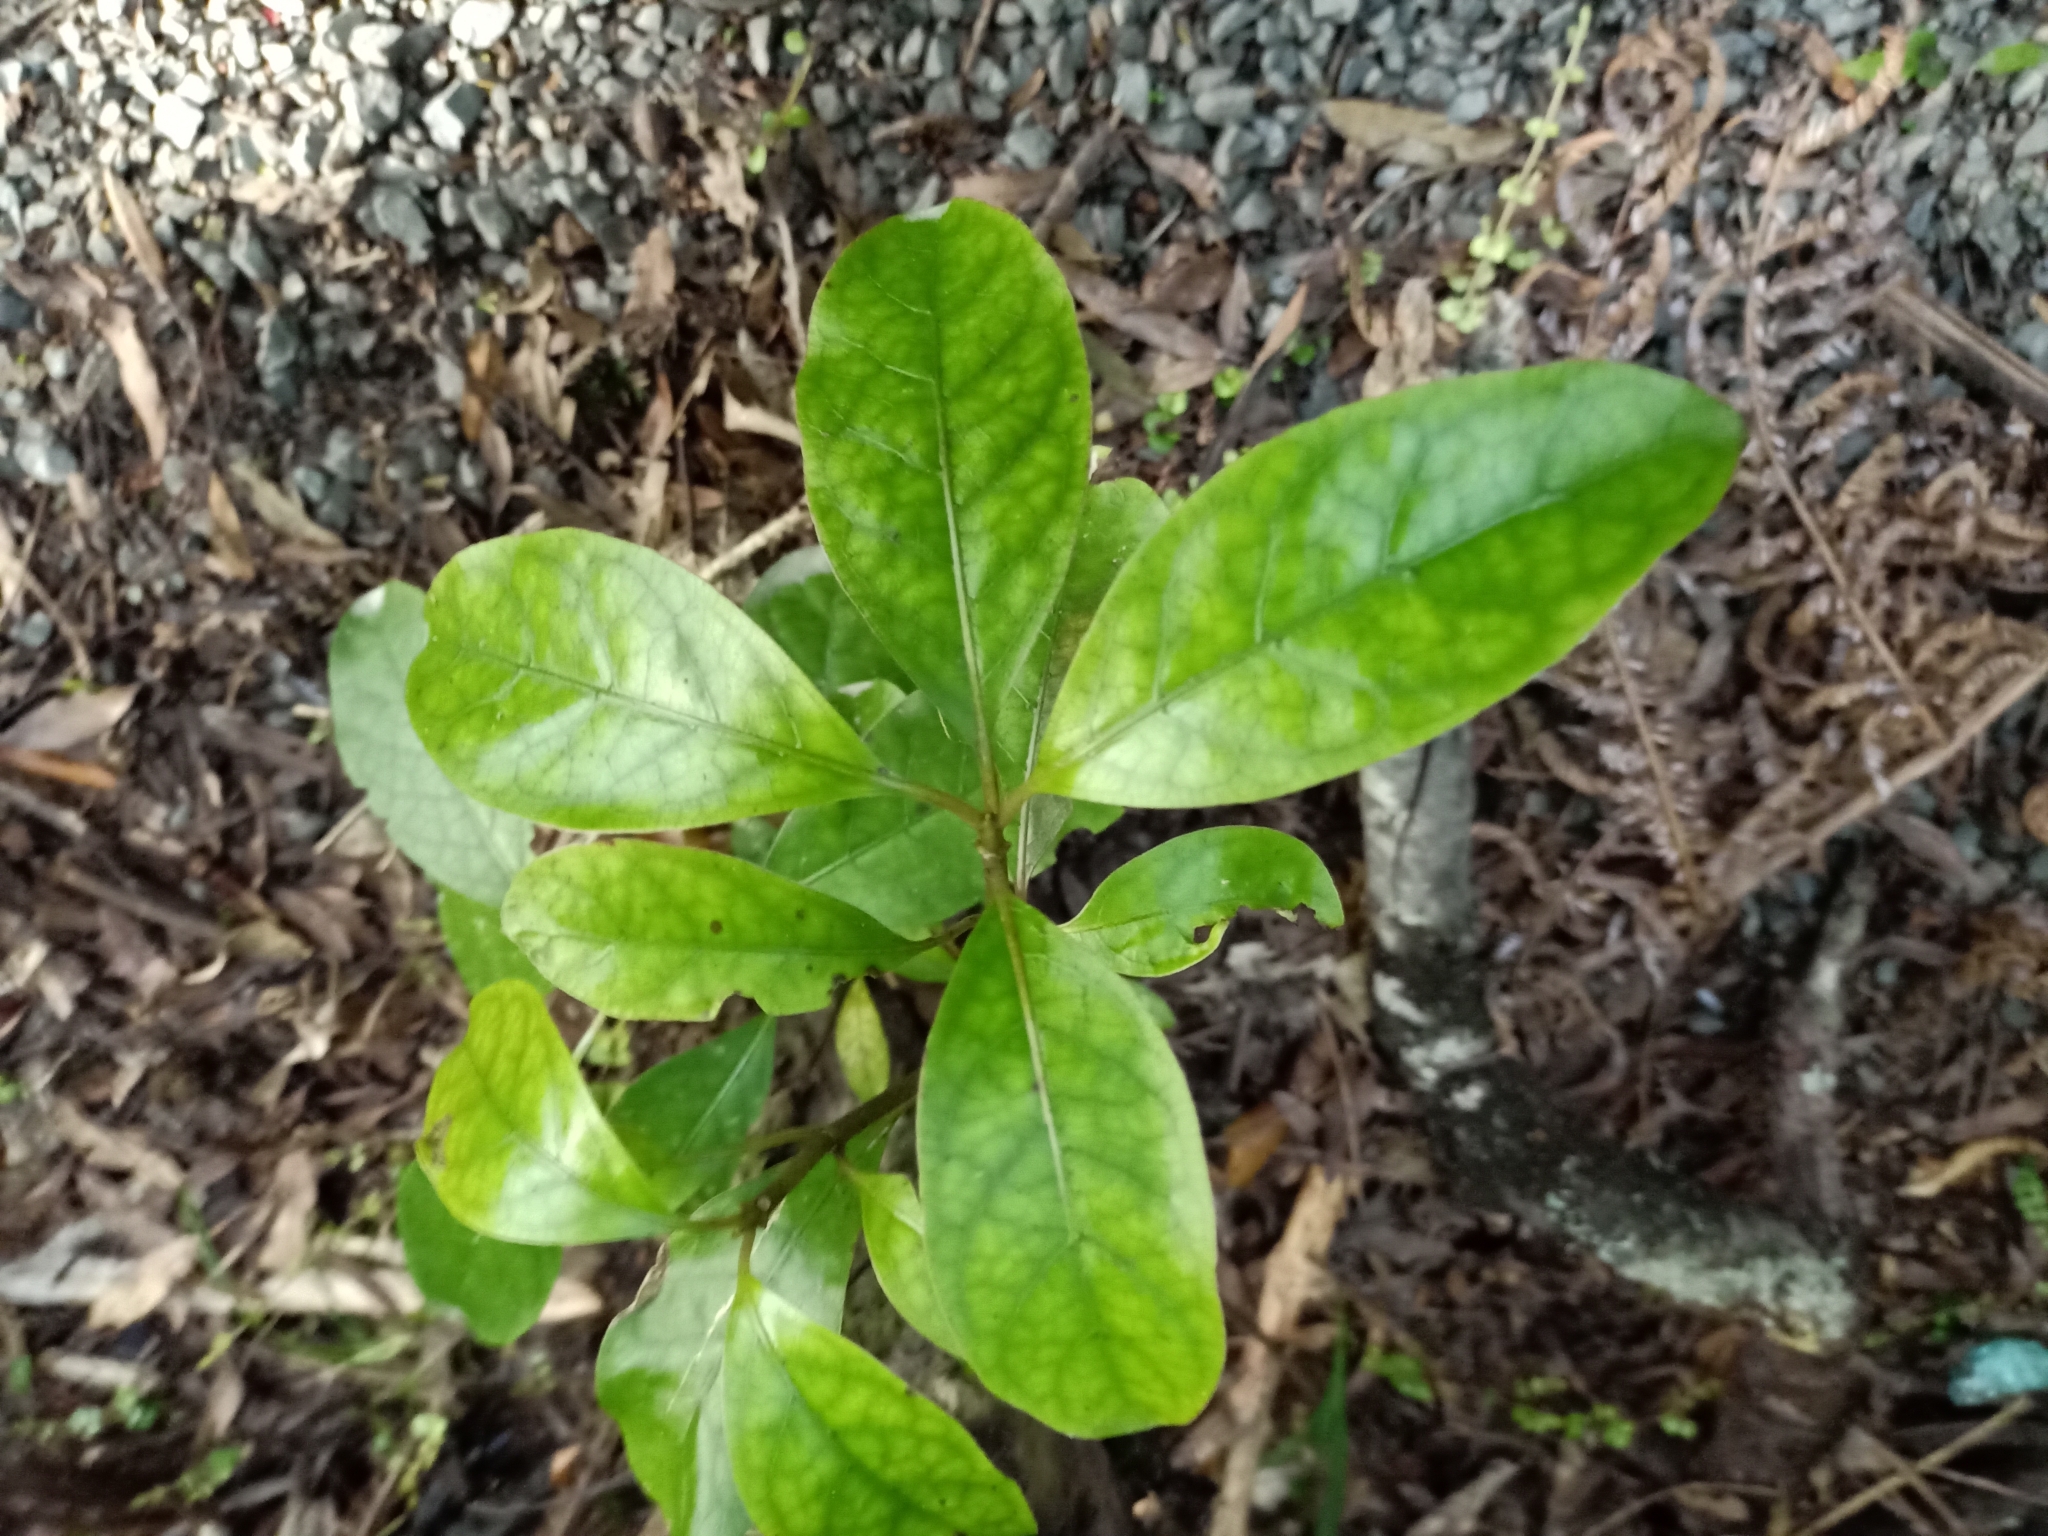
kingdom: Plantae
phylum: Tracheophyta
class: Magnoliopsida
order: Gentianales
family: Rubiaceae
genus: Coprosma
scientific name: Coprosma autumnalis
